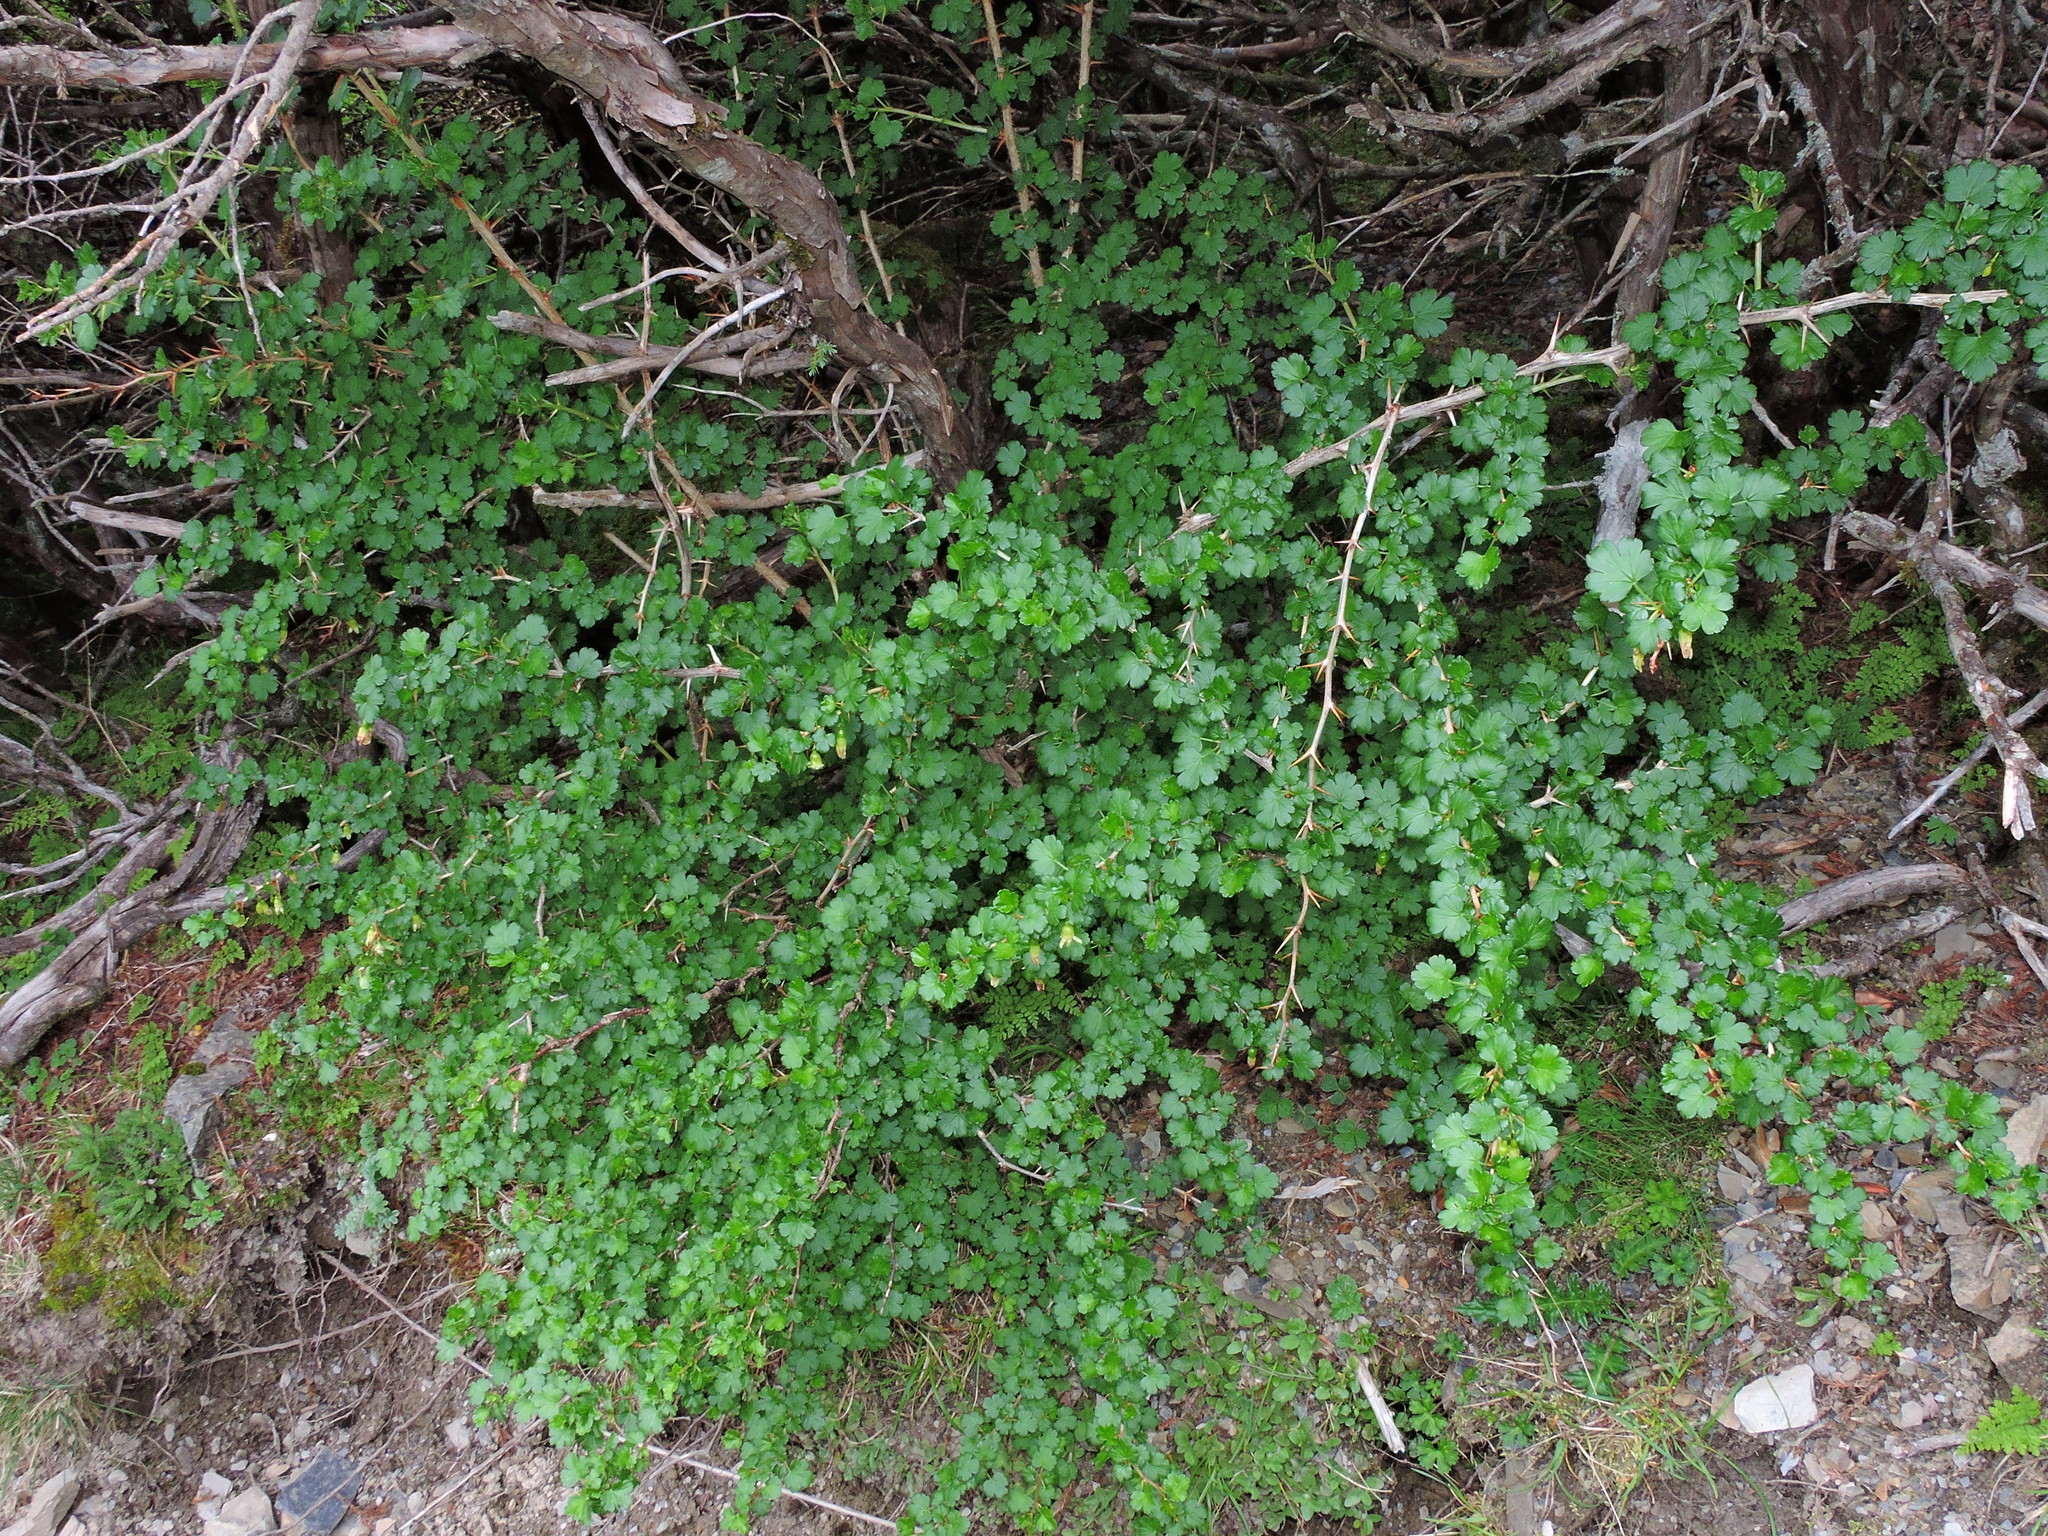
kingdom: Plantae
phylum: Tracheophyta
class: Magnoliopsida
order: Saxifragales
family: Grossulariaceae
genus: Ribes
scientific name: Ribes formosanum
